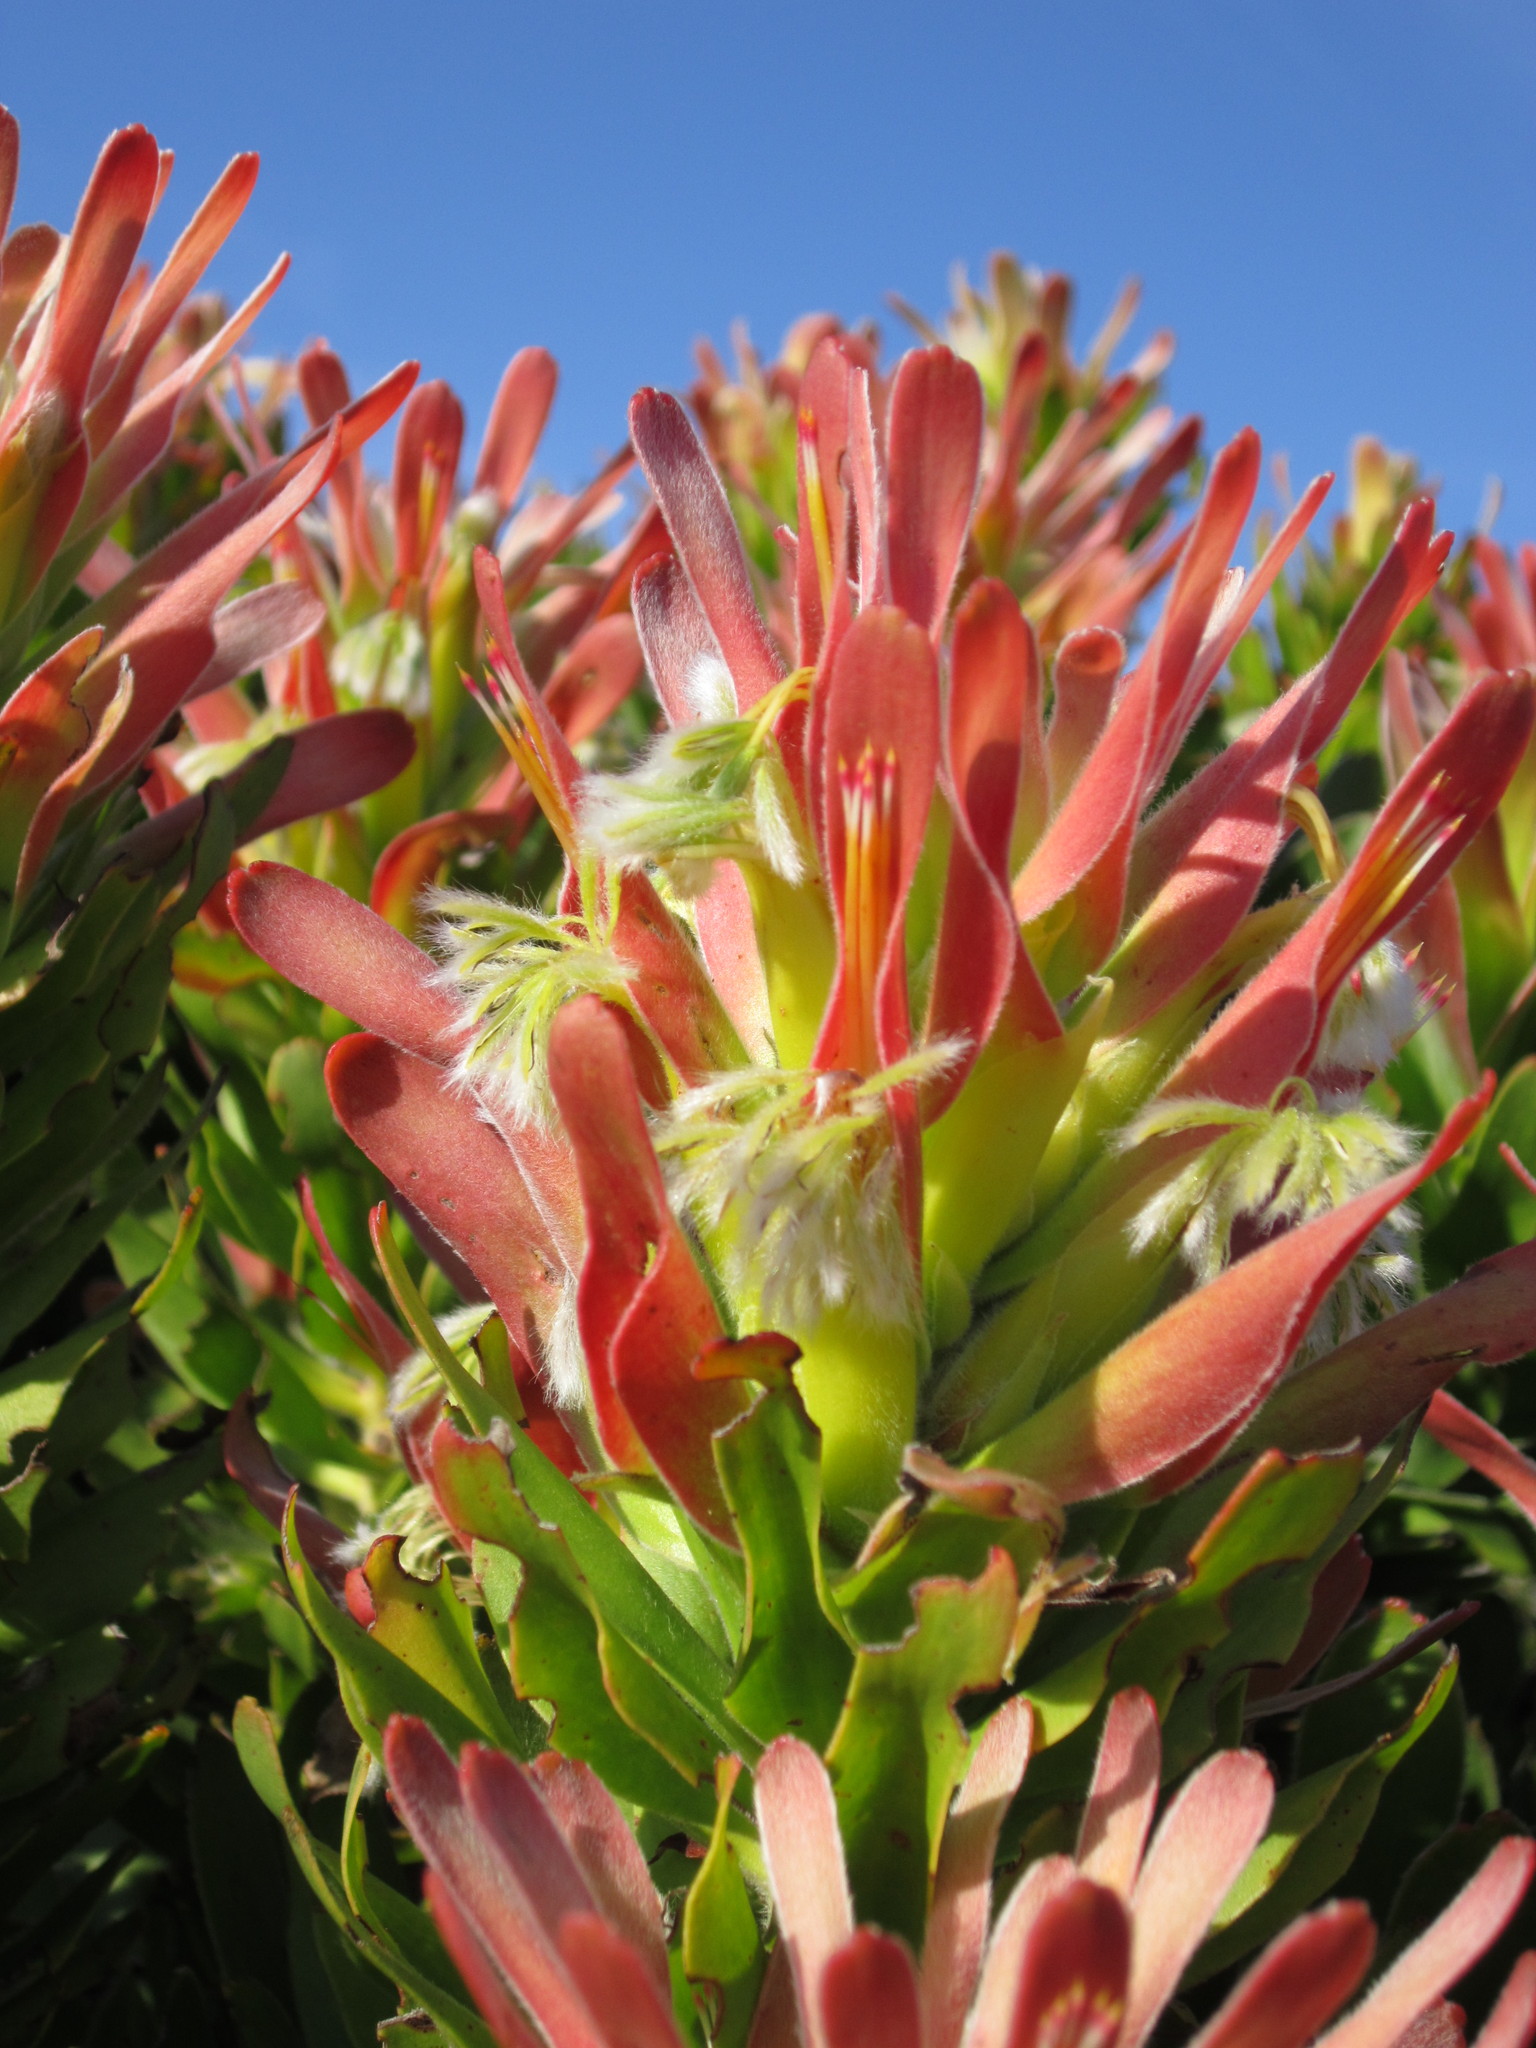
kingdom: Plantae
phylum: Tracheophyta
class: Magnoliopsida
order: Proteales
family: Proteaceae
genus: Mimetes
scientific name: Mimetes fimbriifolius
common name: Fringed bottlebrush
